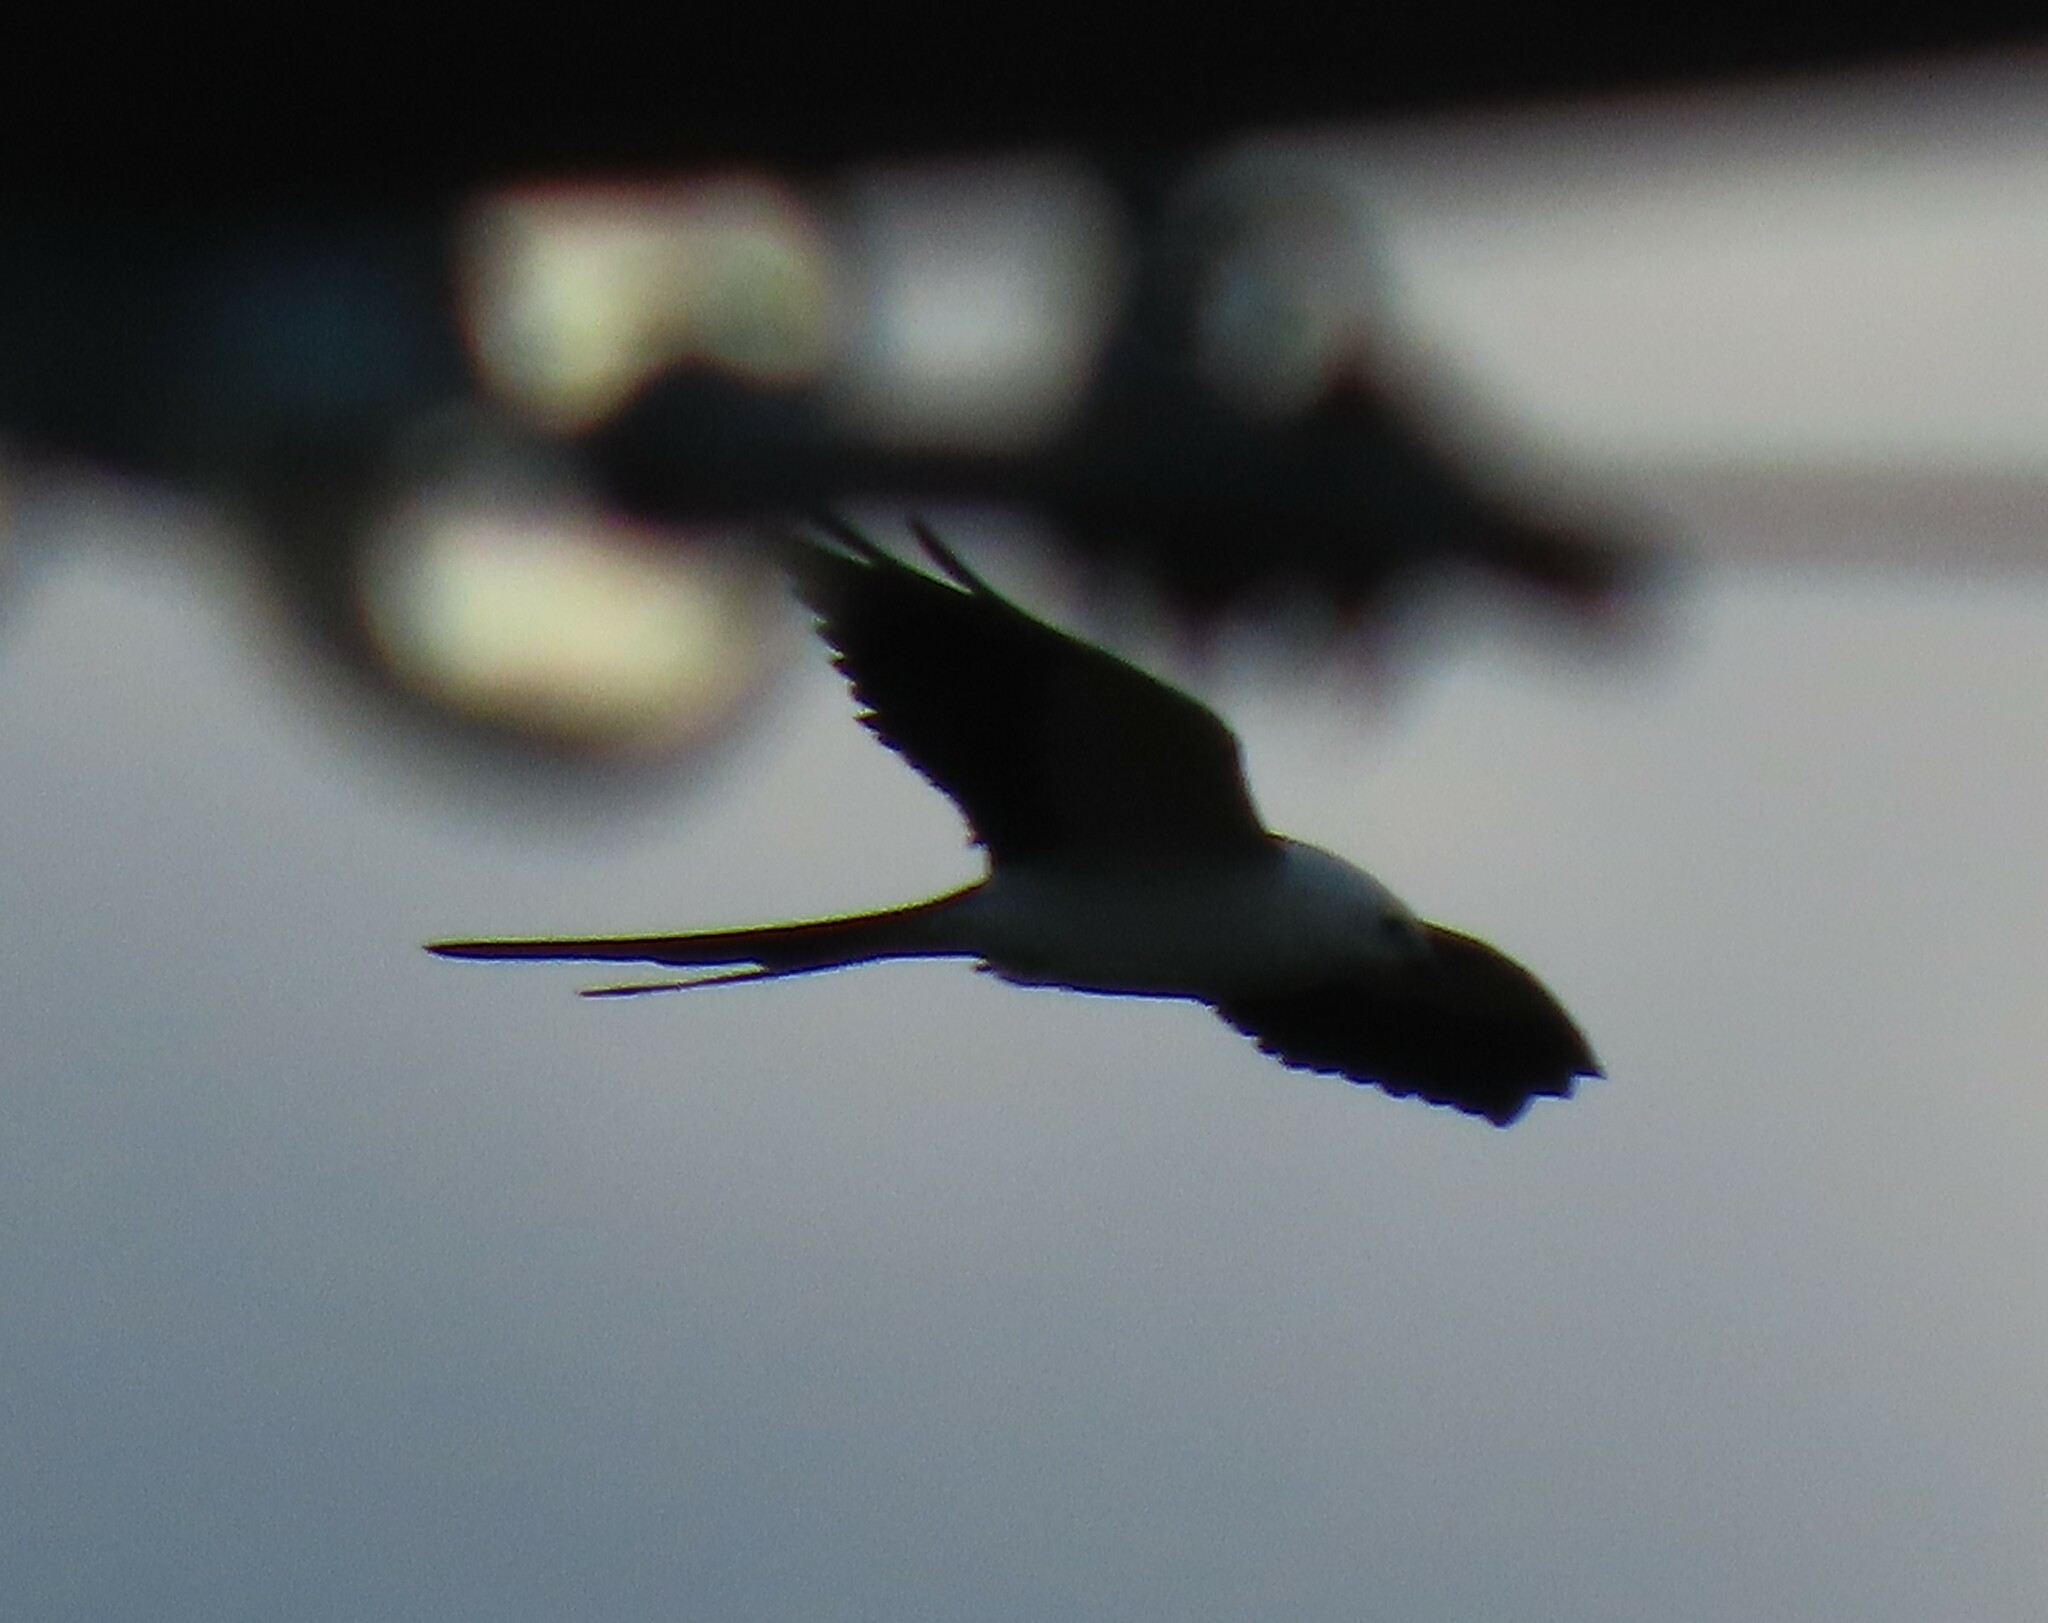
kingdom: Animalia
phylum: Chordata
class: Aves
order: Accipitriformes
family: Accipitridae
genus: Elanoides
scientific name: Elanoides forficatus
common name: Swallow-tailed kite
